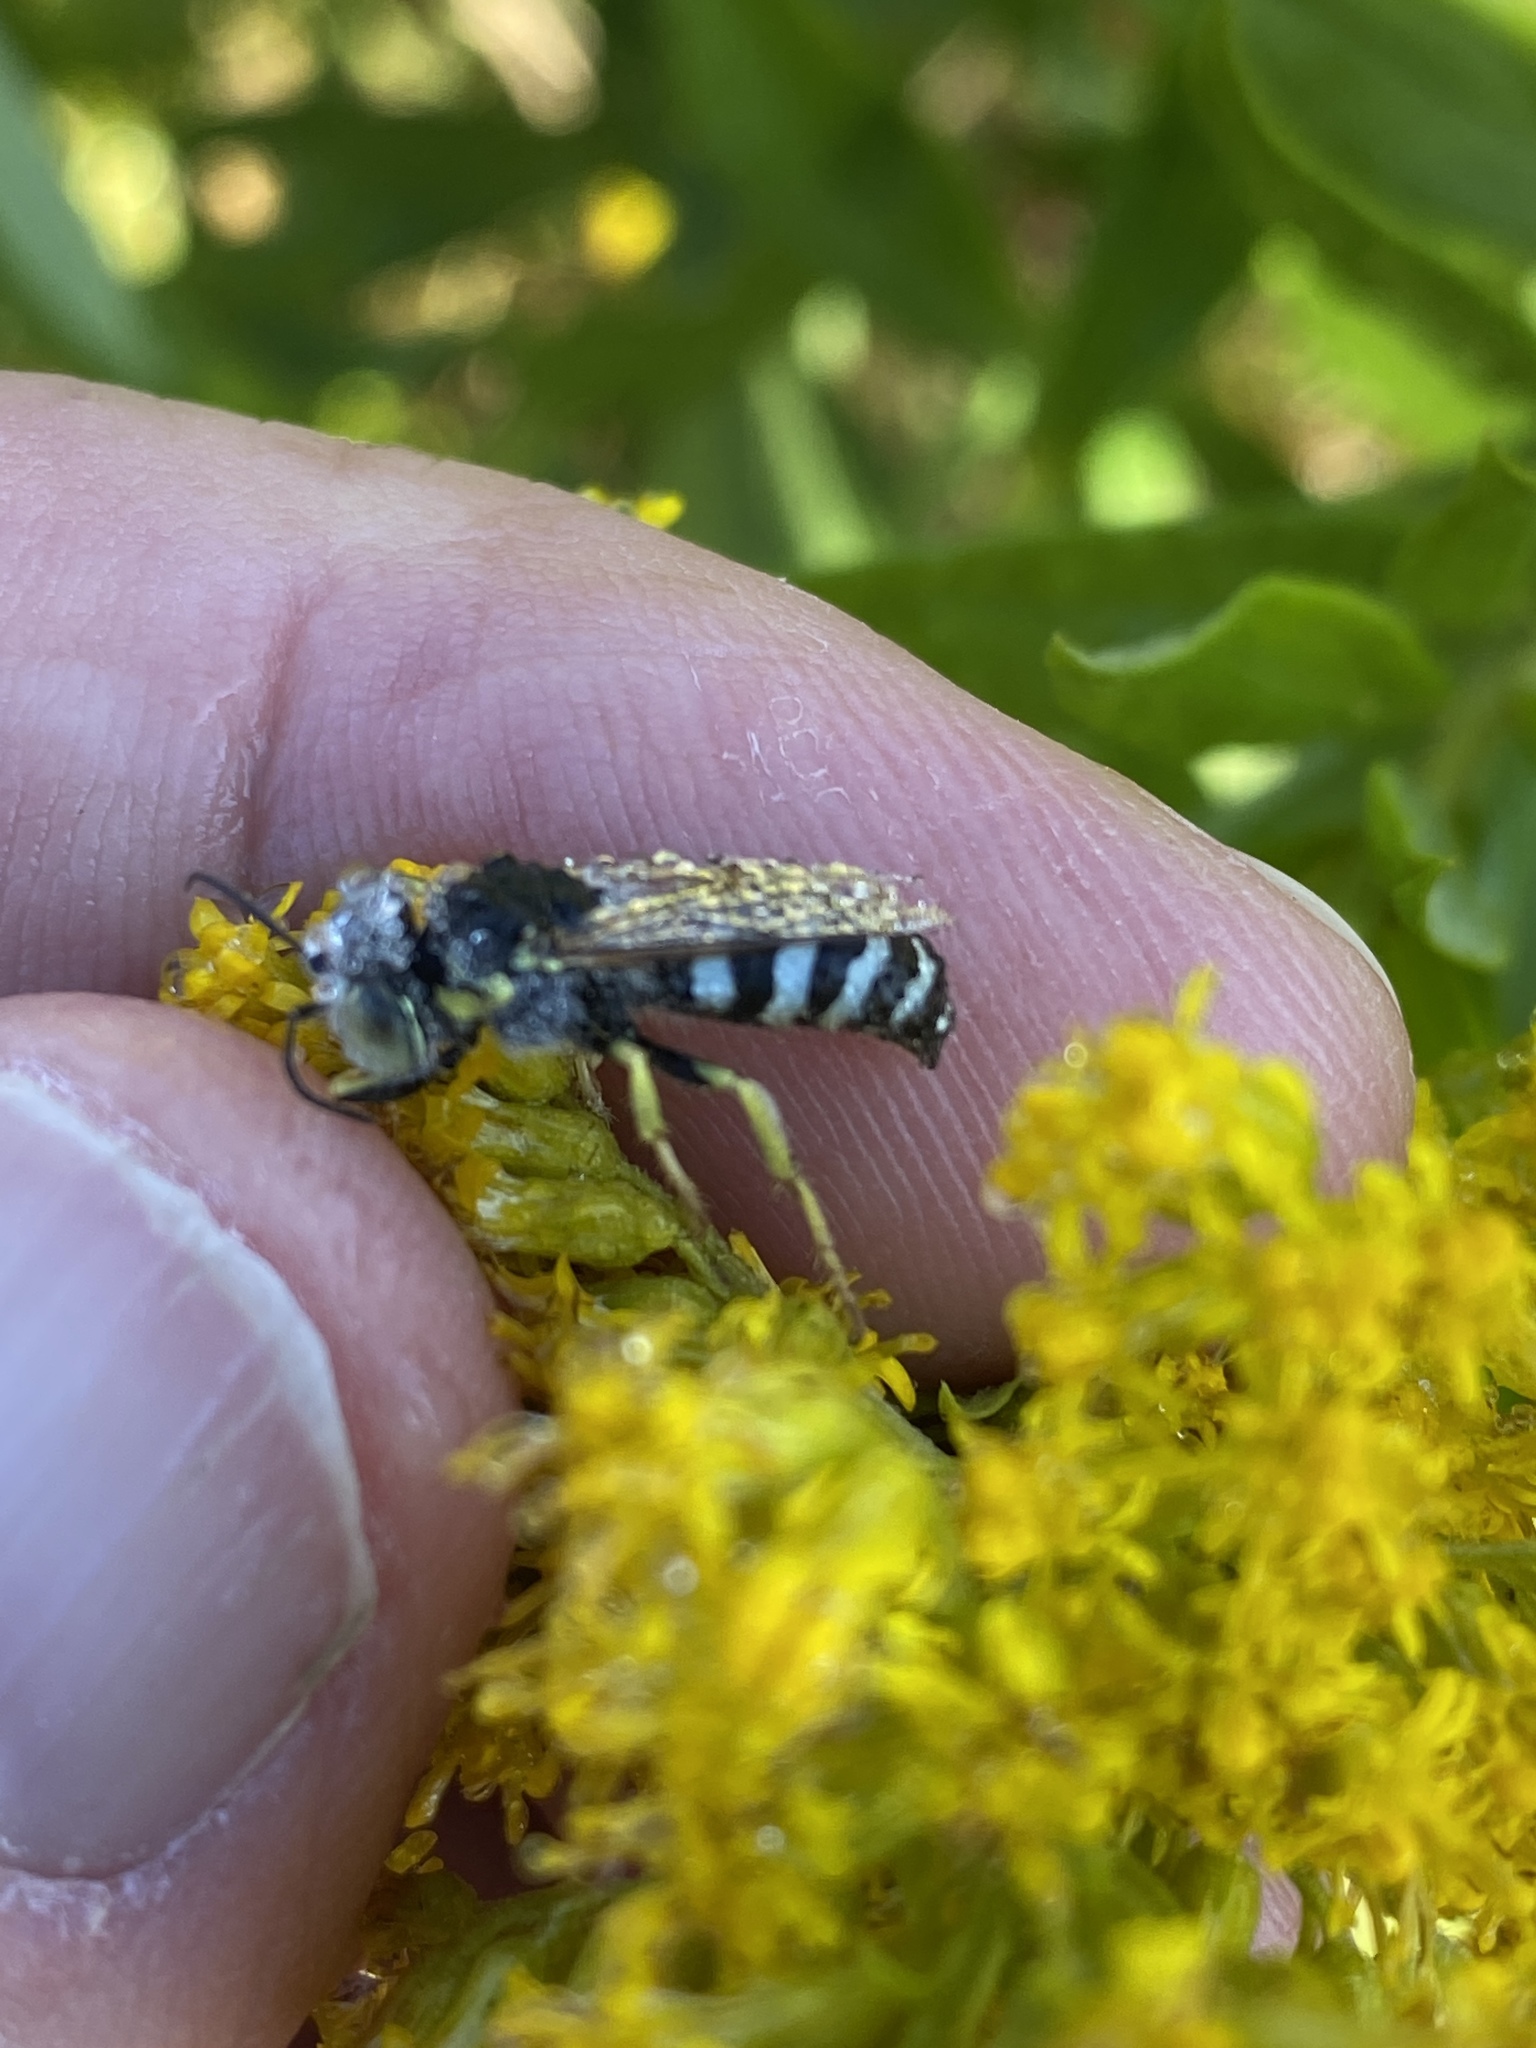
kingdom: Animalia
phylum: Arthropoda
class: Insecta
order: Hymenoptera
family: Crabronidae
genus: Bembix
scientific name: Bembix americana
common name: American sand wasp
